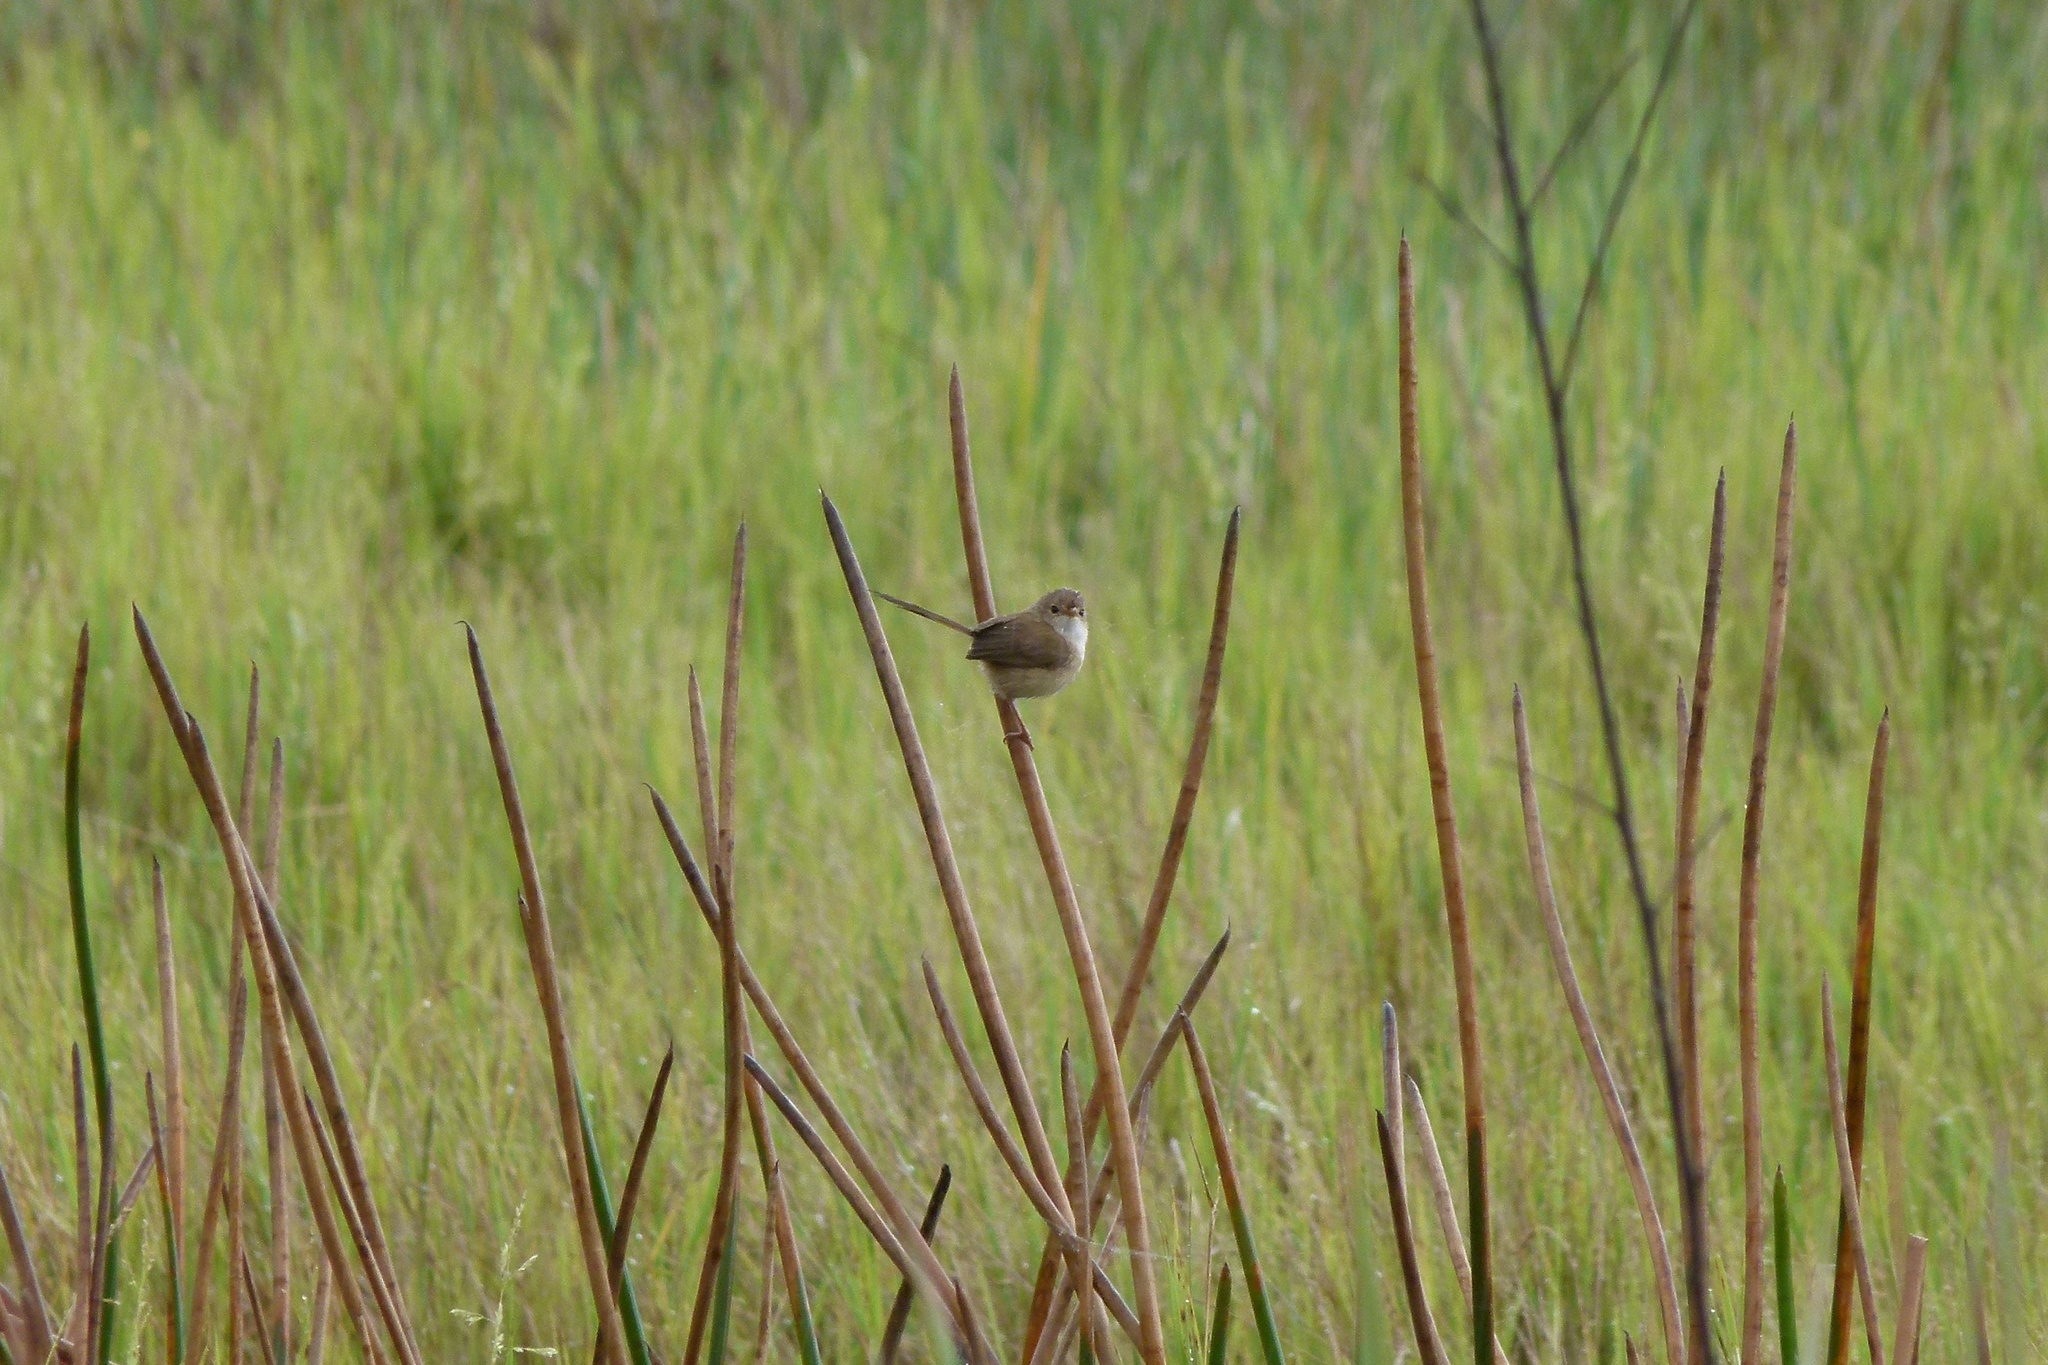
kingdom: Animalia
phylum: Chordata
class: Aves
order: Passeriformes
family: Maluridae
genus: Malurus
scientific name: Malurus melanocephalus
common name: Red-backed fairywren
